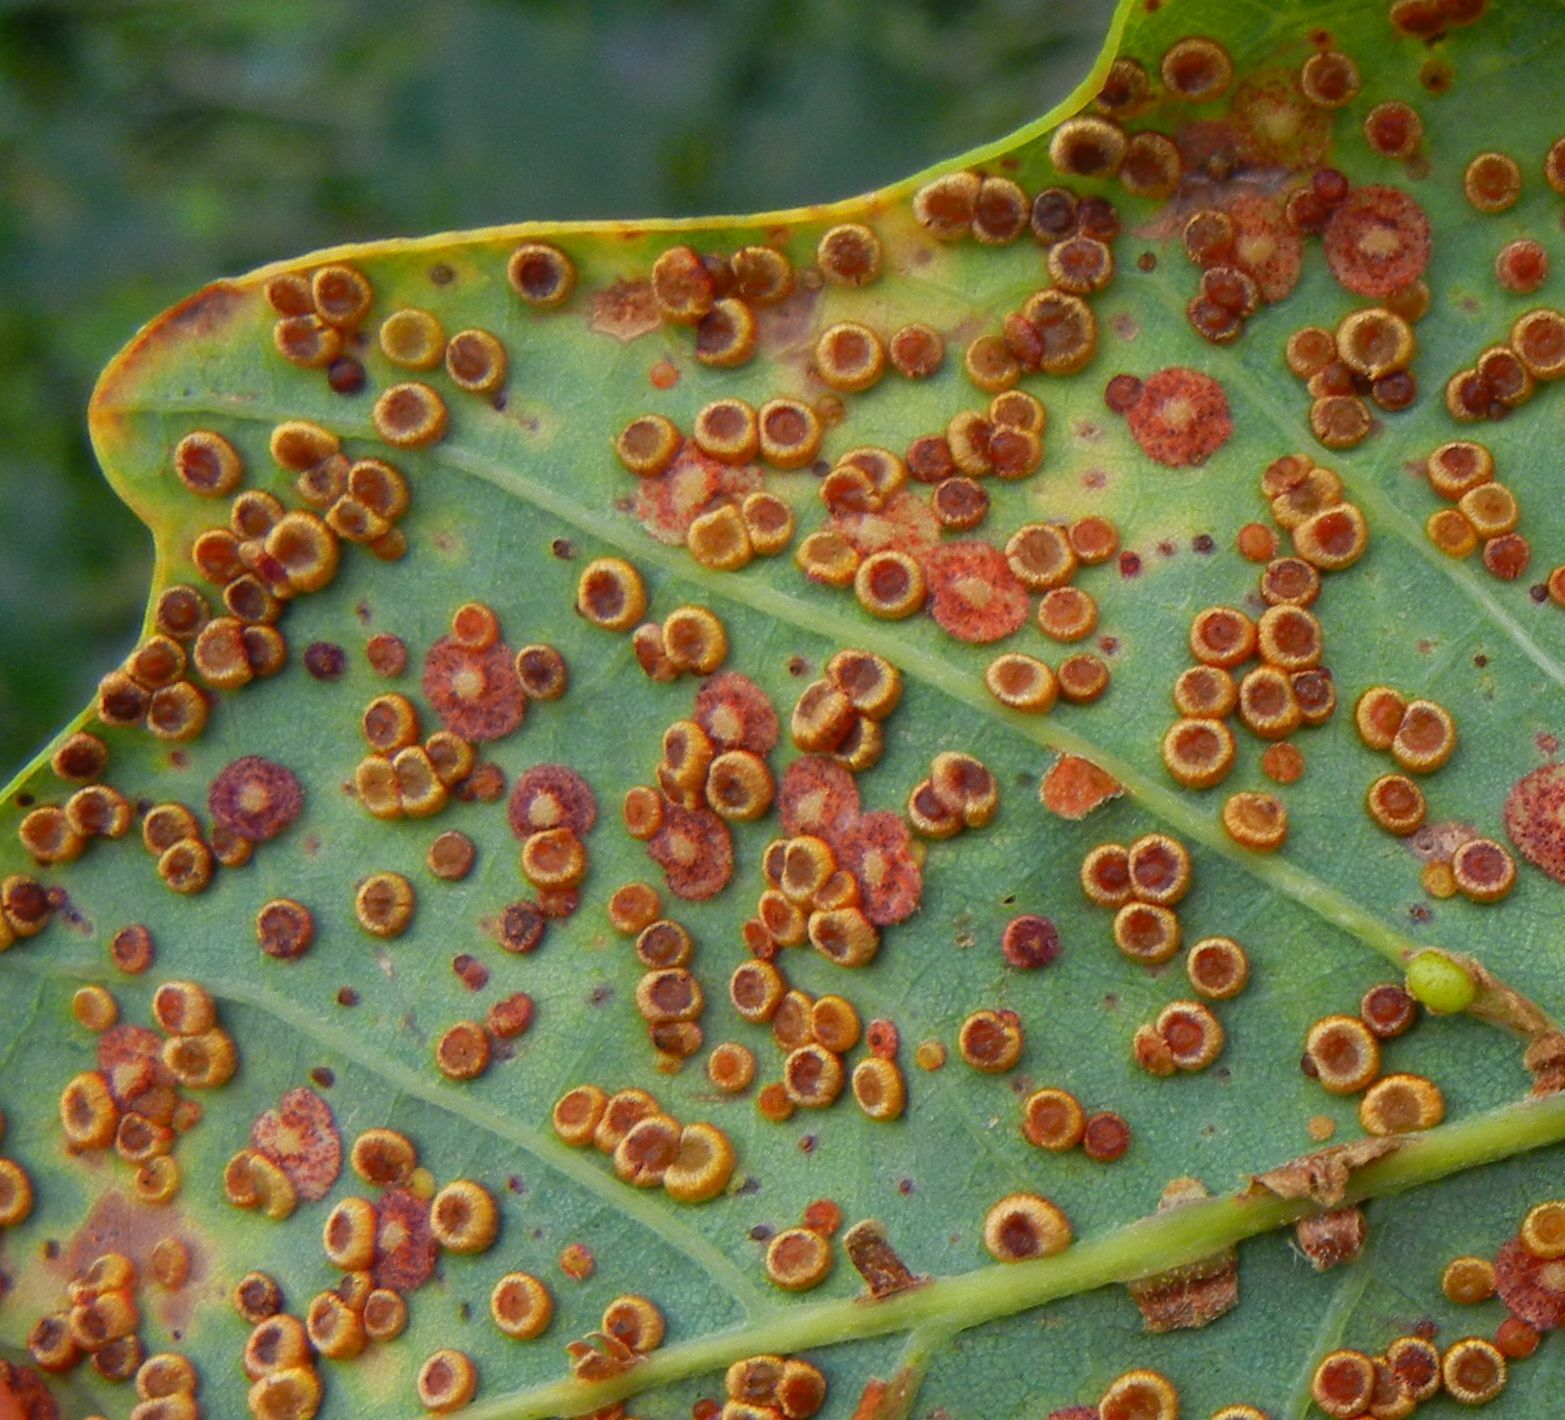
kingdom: Animalia
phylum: Arthropoda
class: Insecta
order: Hymenoptera
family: Cynipidae
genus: Neuroterus
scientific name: Neuroterus numismalis
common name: Silk-button spangle gall
